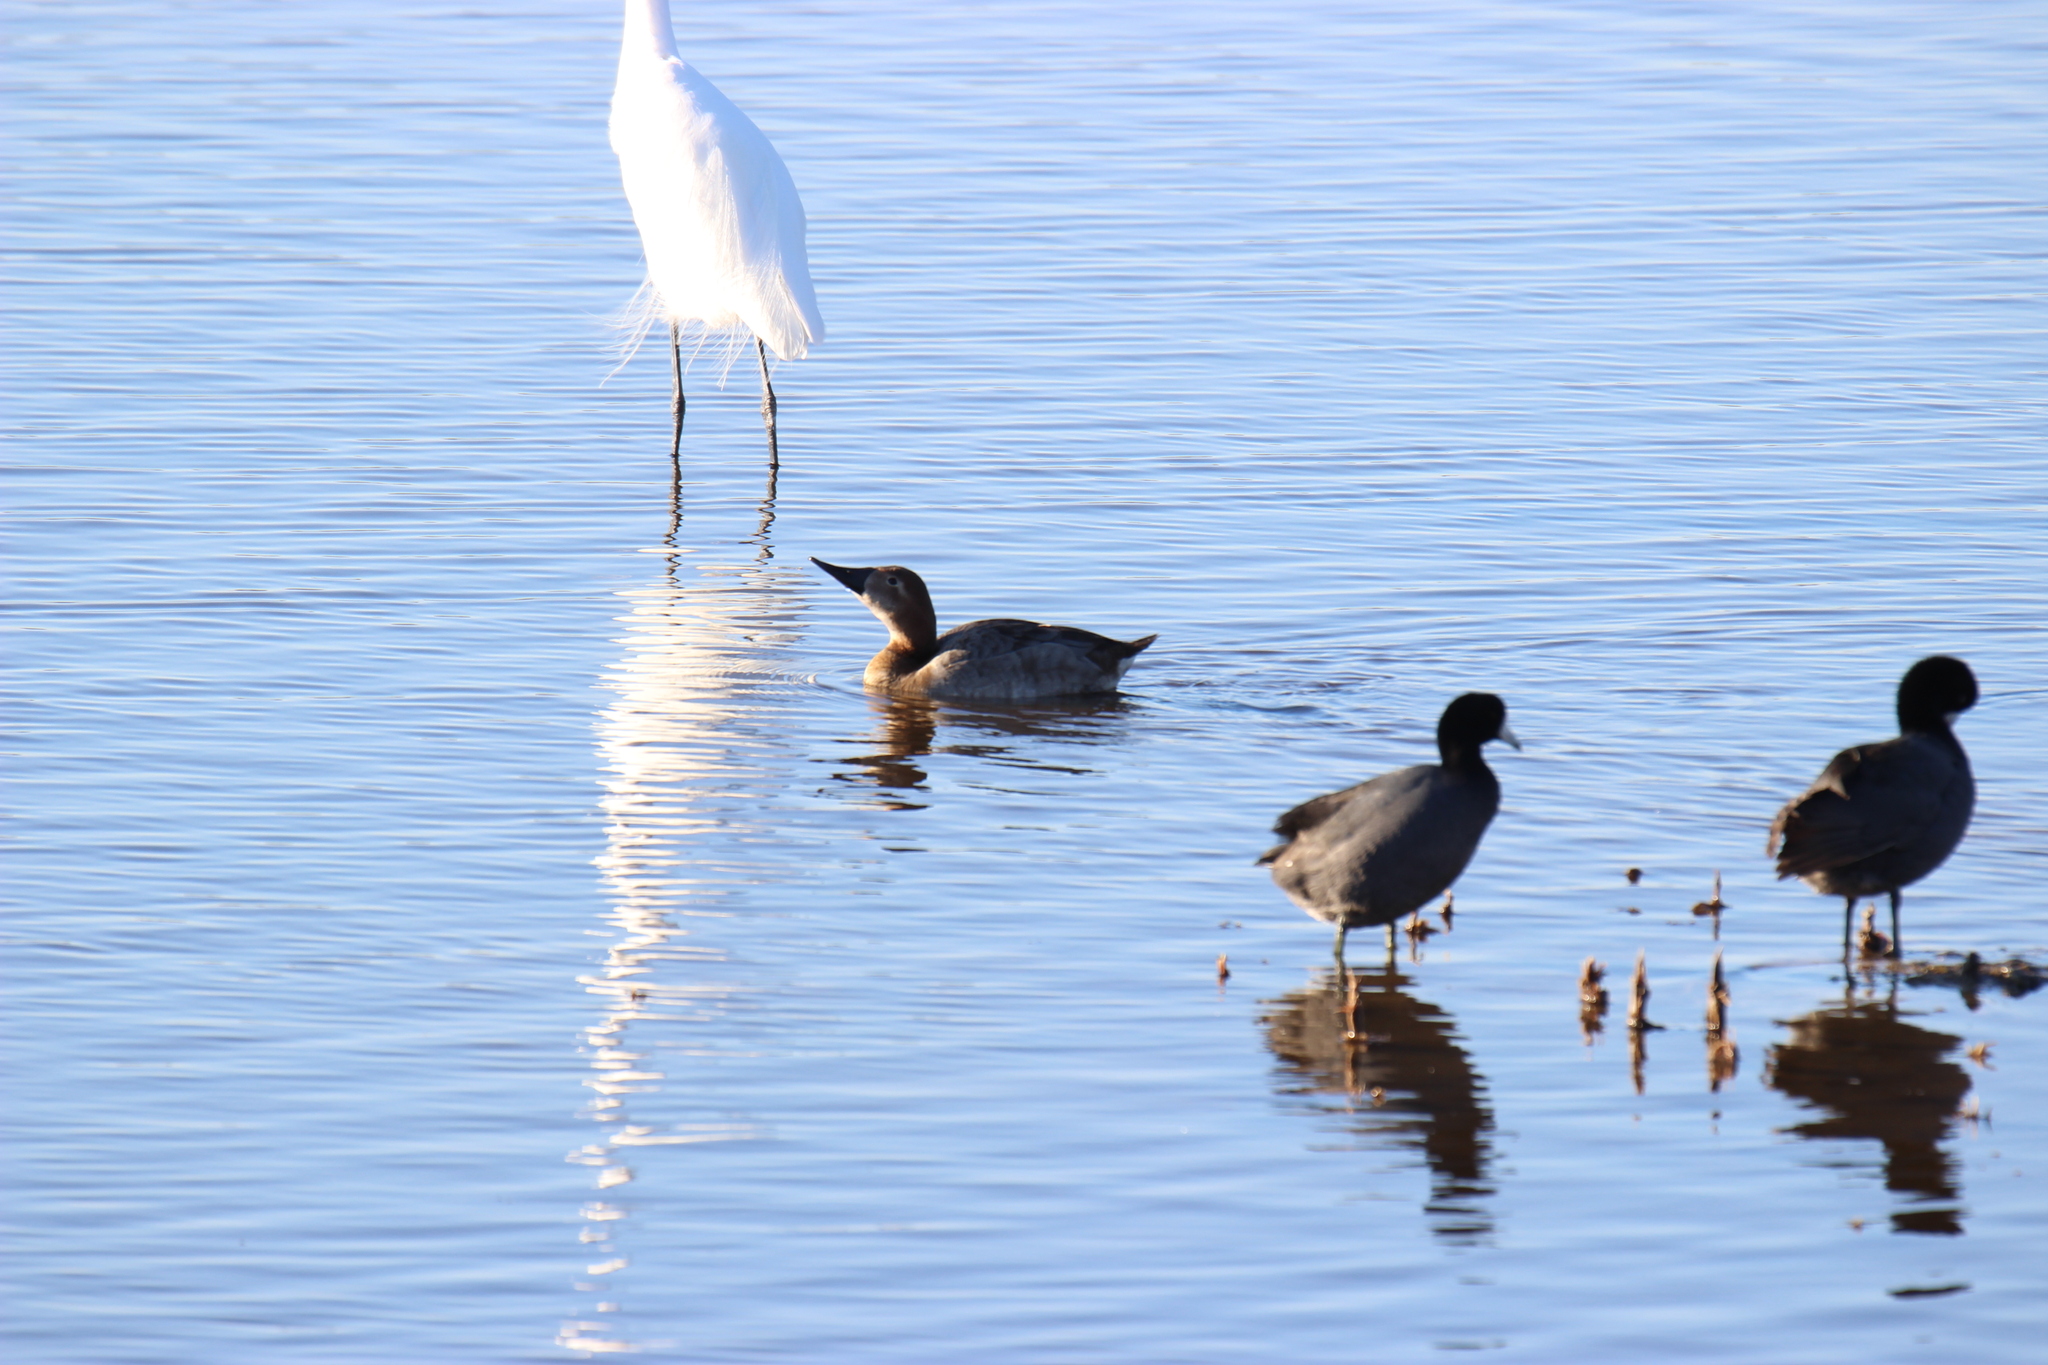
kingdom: Animalia
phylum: Chordata
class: Aves
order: Anseriformes
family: Anatidae
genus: Aythya
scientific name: Aythya valisineria
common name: Canvasback
